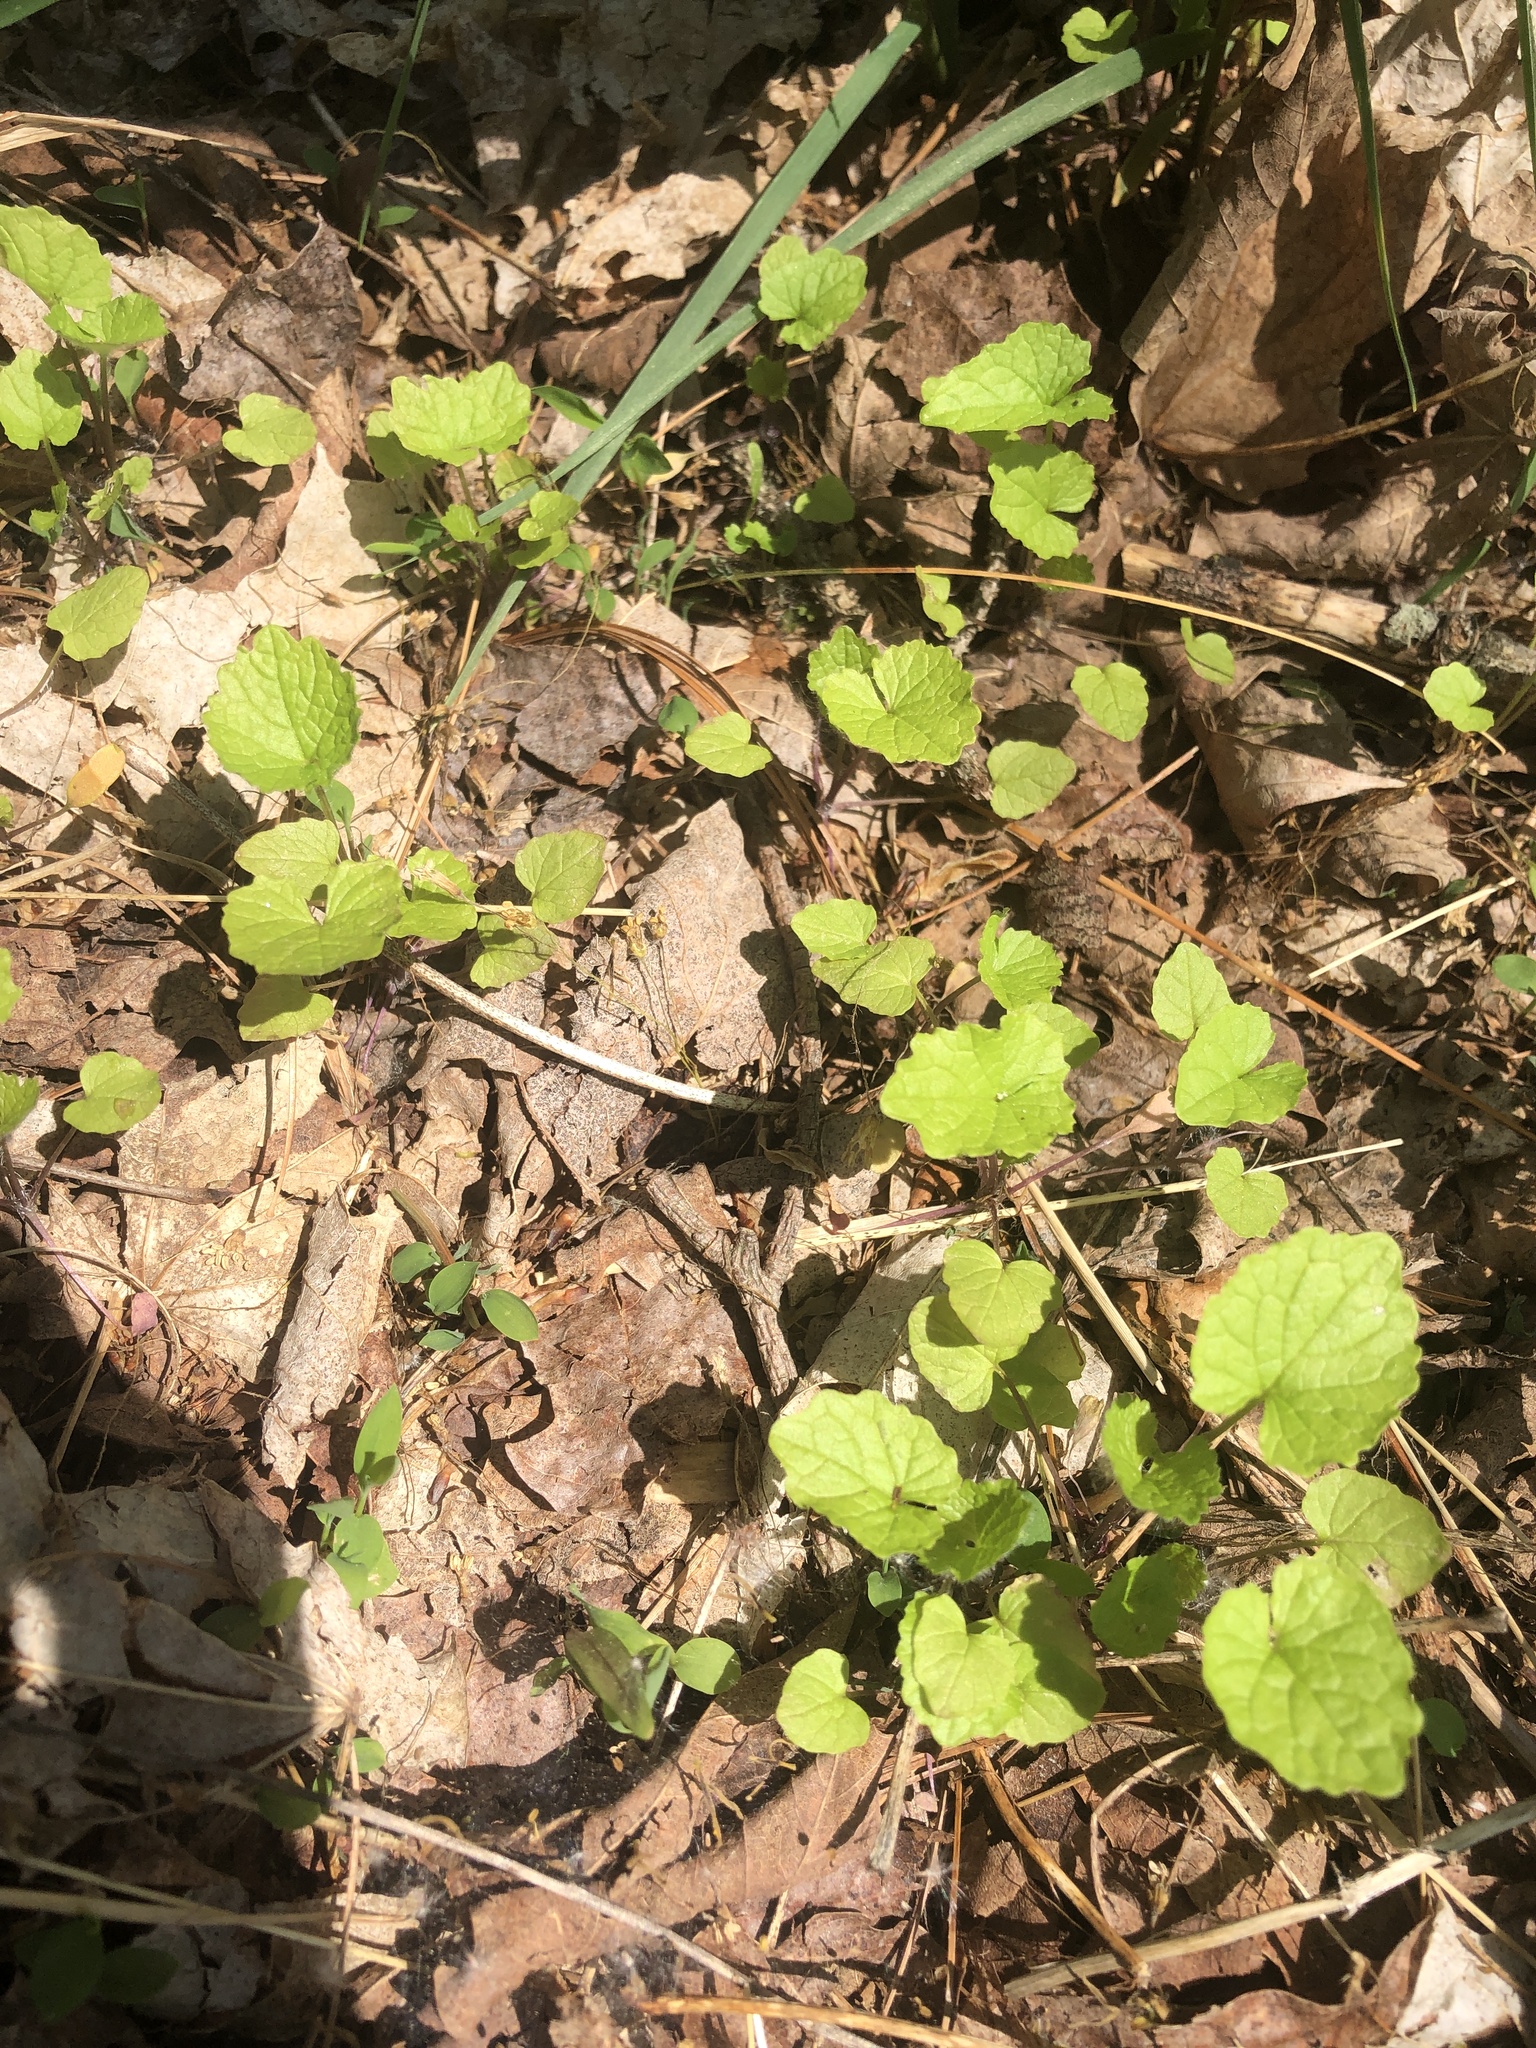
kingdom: Plantae
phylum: Tracheophyta
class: Magnoliopsida
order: Brassicales
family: Brassicaceae
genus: Alliaria
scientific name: Alliaria petiolata
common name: Garlic mustard
